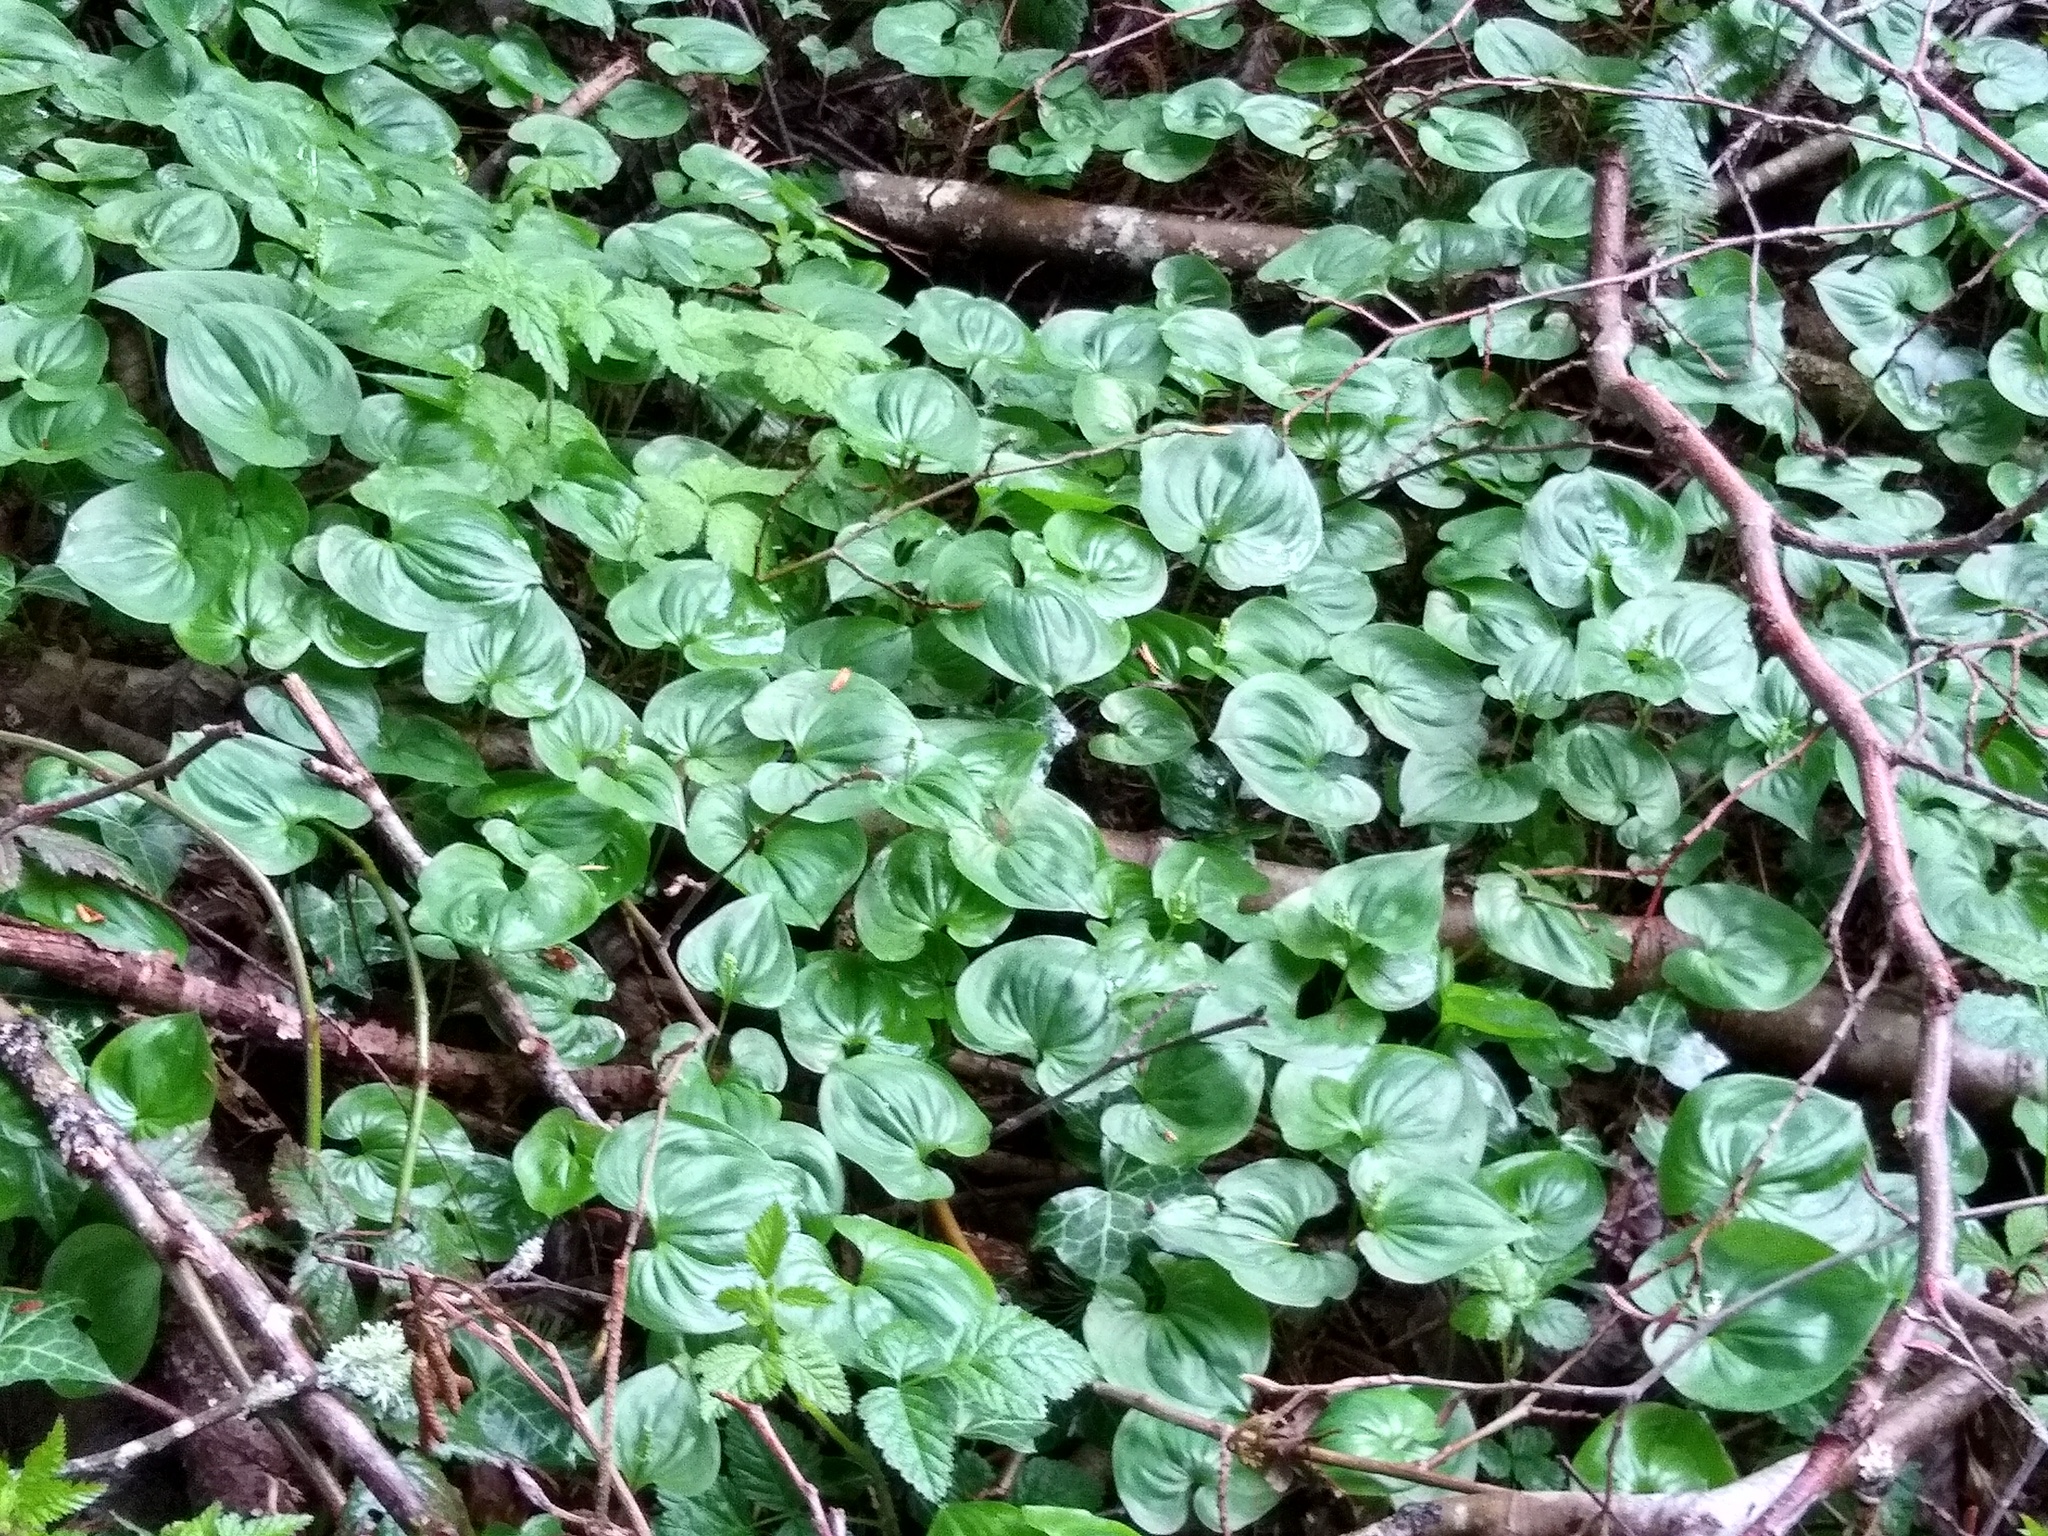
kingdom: Plantae
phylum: Tracheophyta
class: Liliopsida
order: Asparagales
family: Asparagaceae
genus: Maianthemum
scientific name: Maianthemum dilatatum
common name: False lily-of-the-valley
